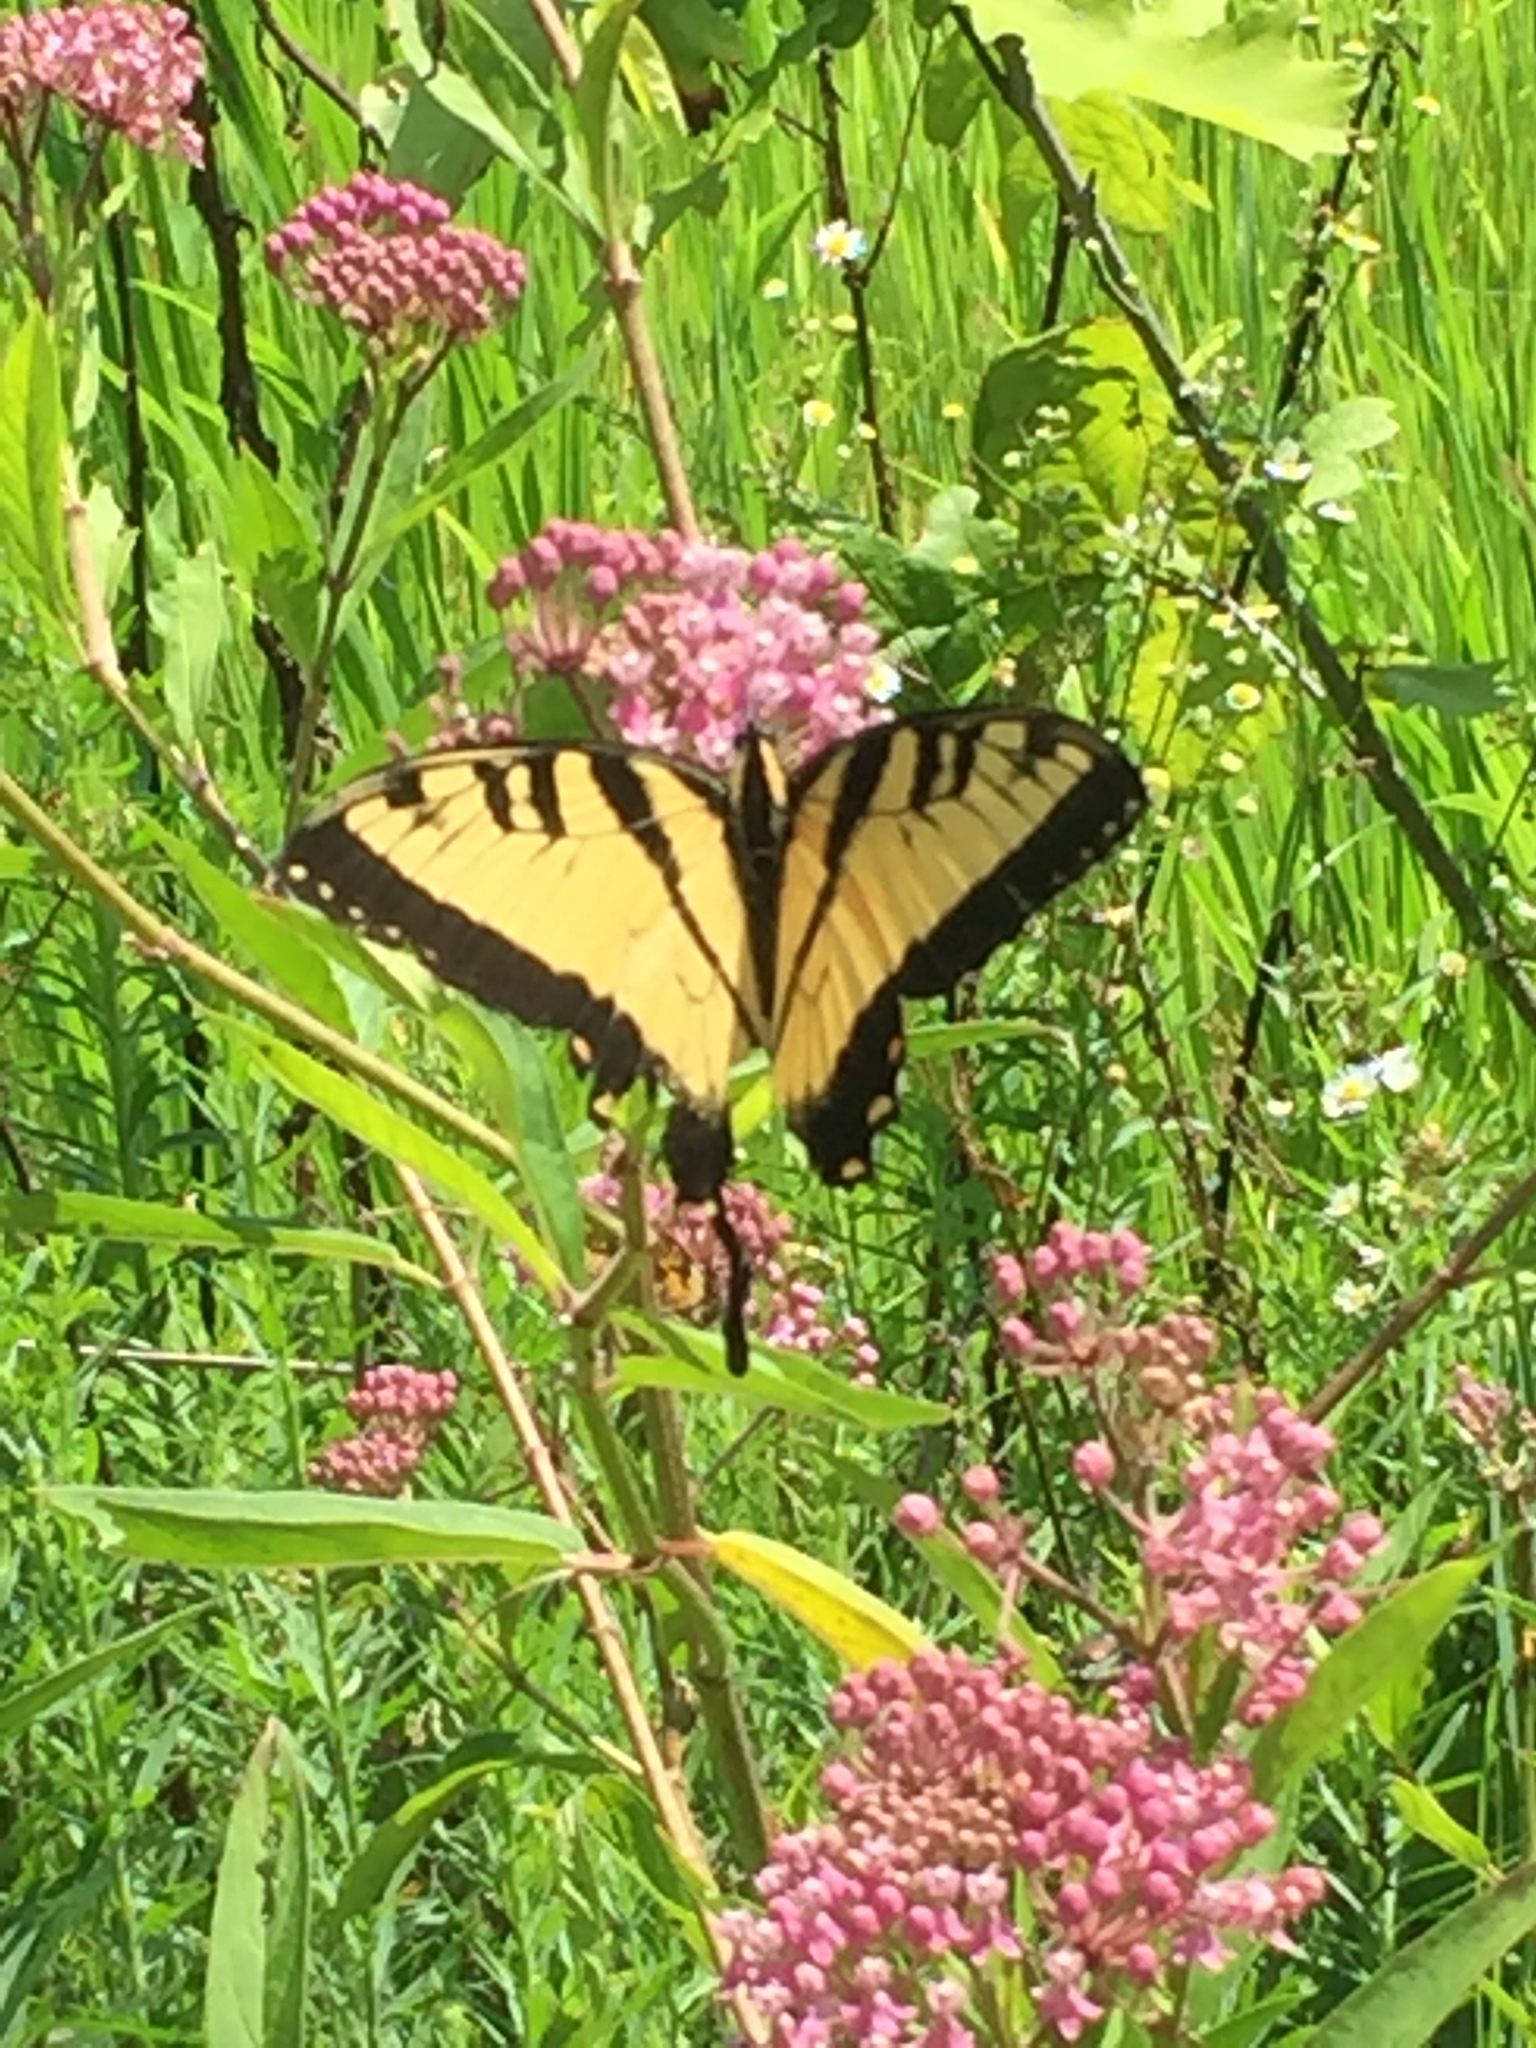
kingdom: Animalia
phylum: Arthropoda
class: Insecta
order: Lepidoptera
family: Papilionidae
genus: Papilio
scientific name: Papilio glaucus
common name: Tiger swallowtail
